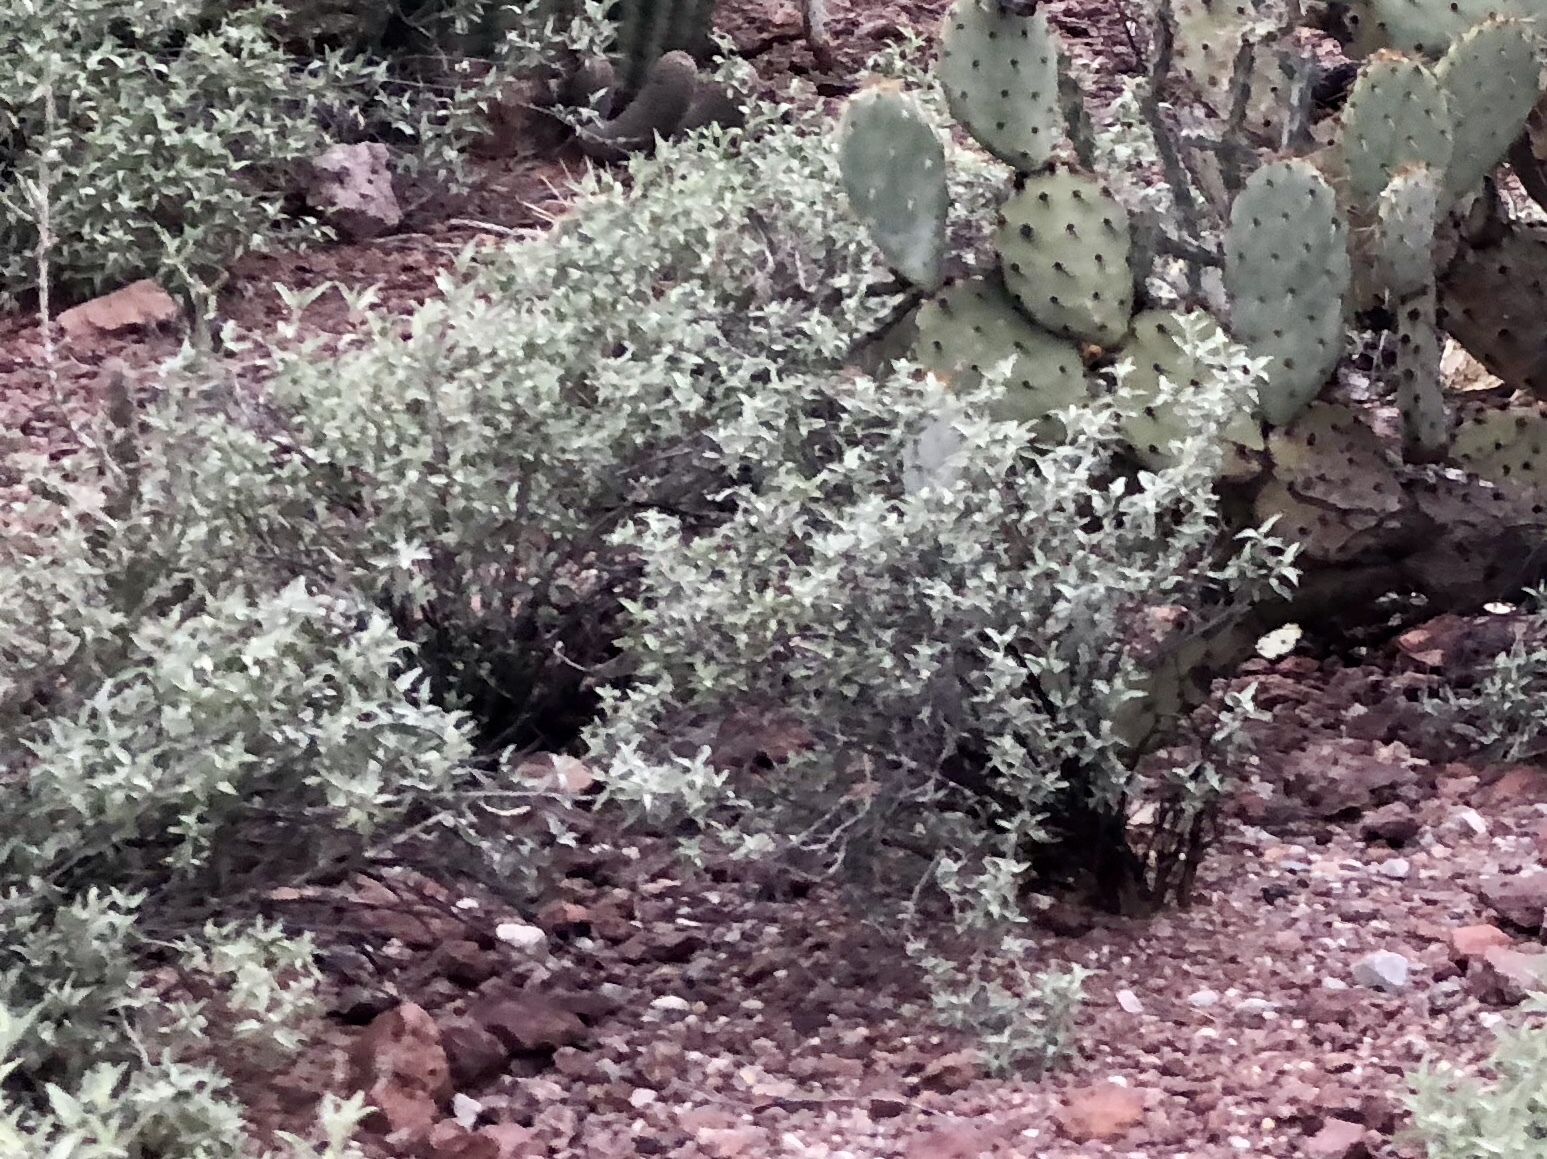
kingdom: Plantae
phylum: Tracheophyta
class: Magnoliopsida
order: Asterales
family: Asteraceae
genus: Ambrosia
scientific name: Ambrosia deltoidea
